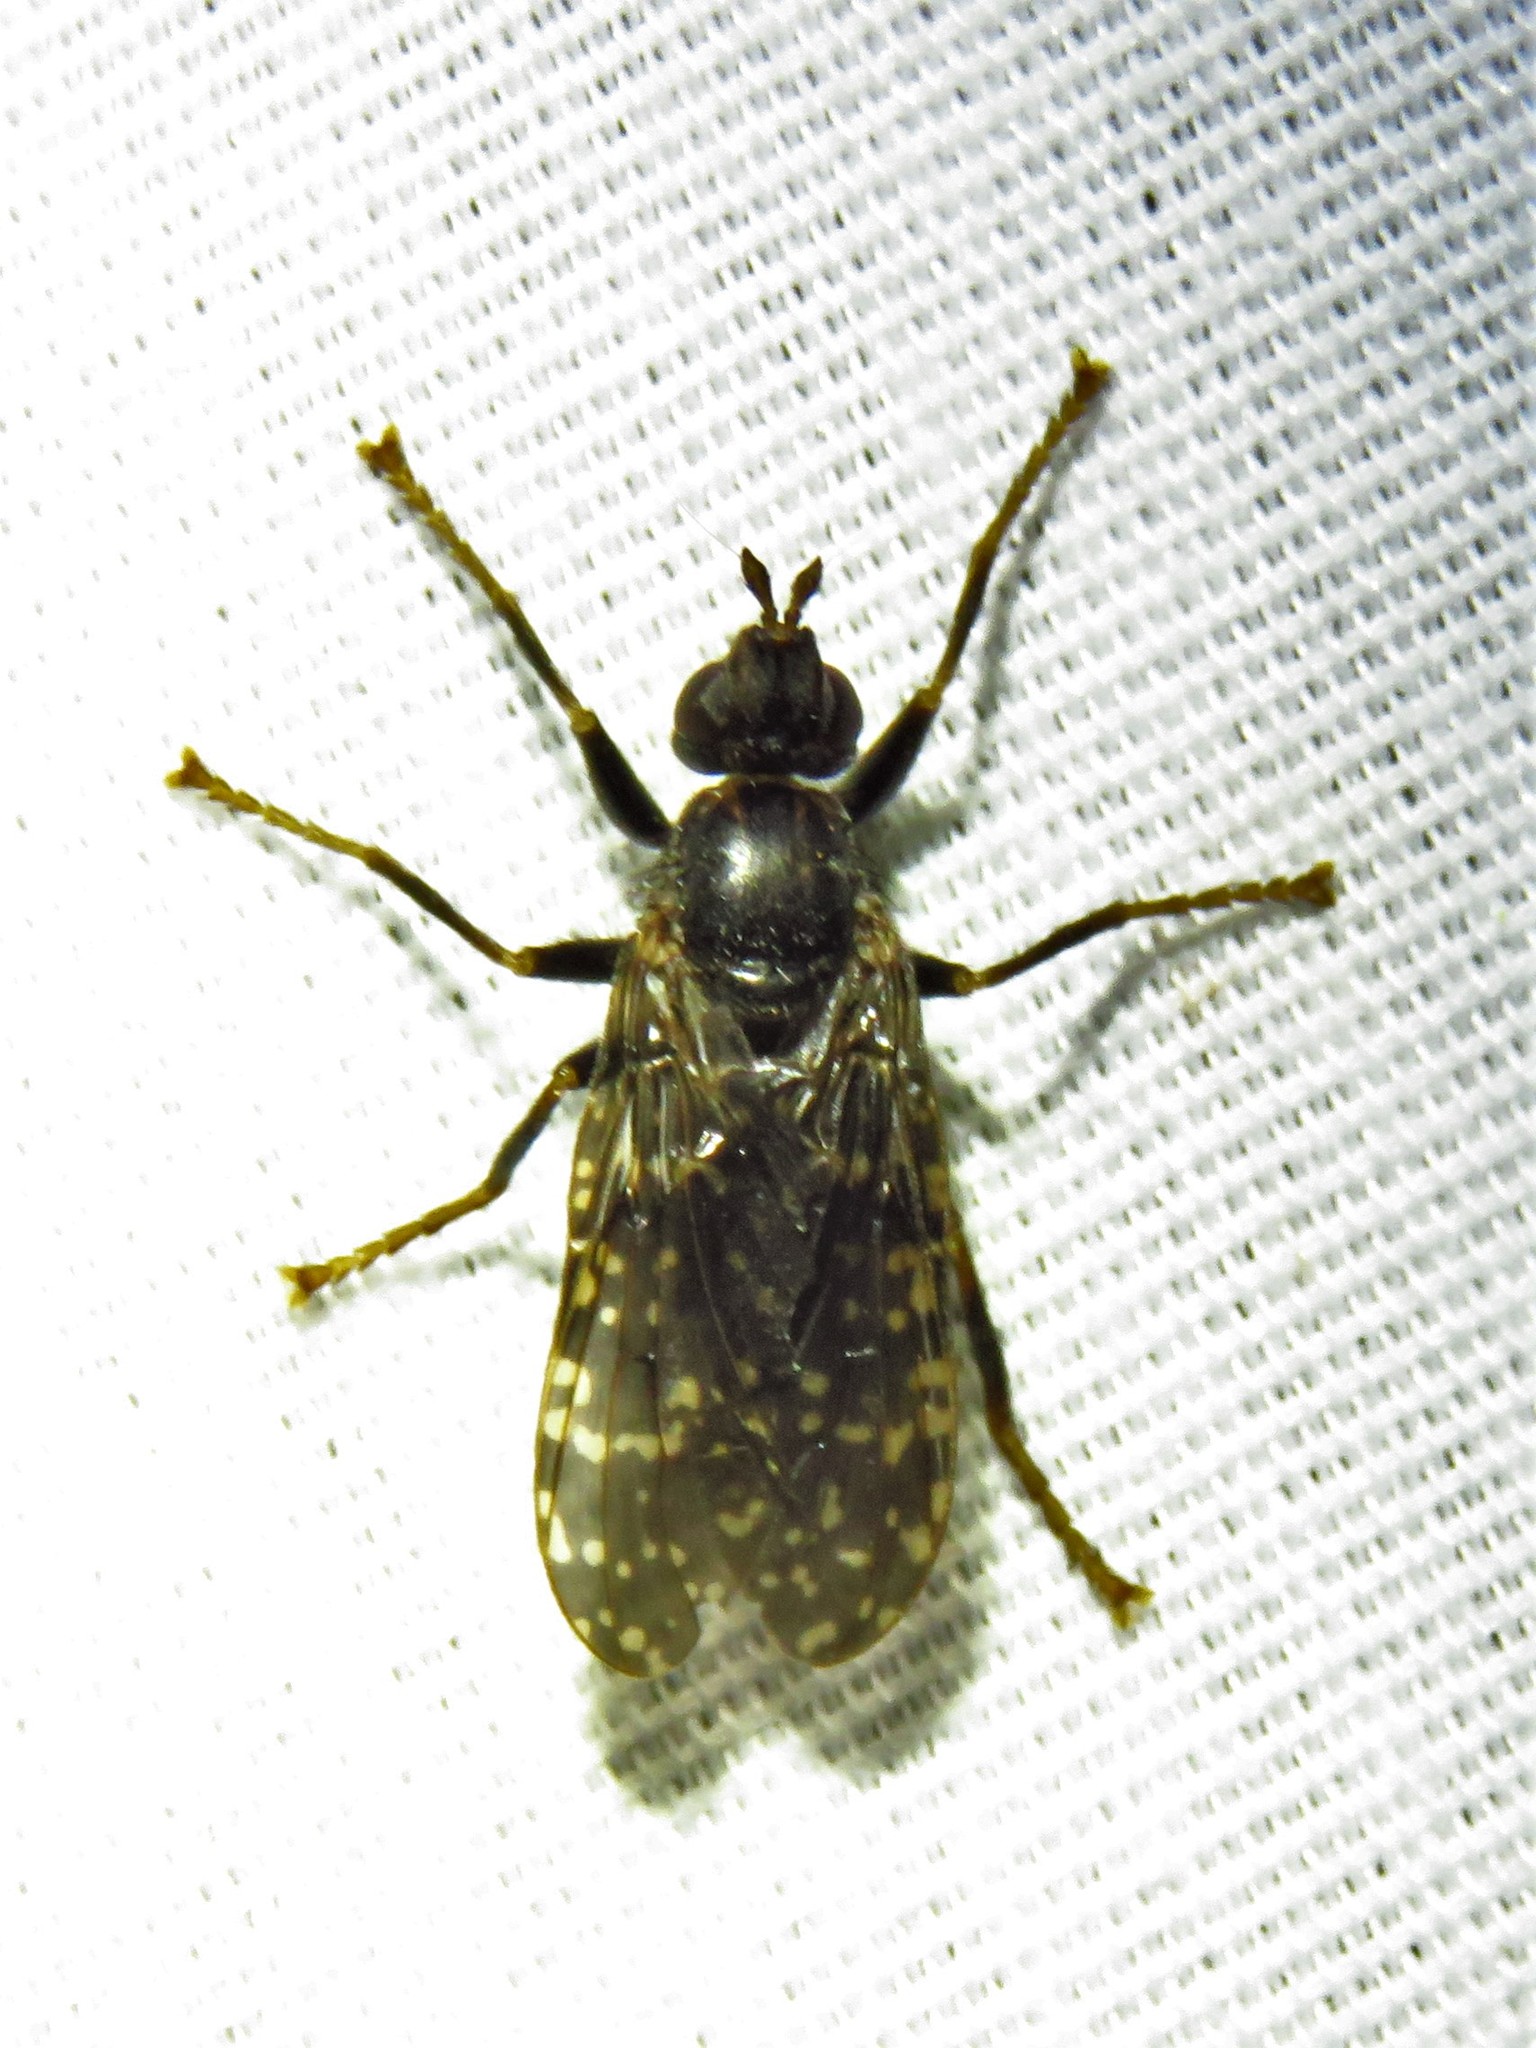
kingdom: Animalia
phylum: Arthropoda
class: Insecta
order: Diptera
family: Pyrgotidae
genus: Pyrgota
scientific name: Pyrgota valida
